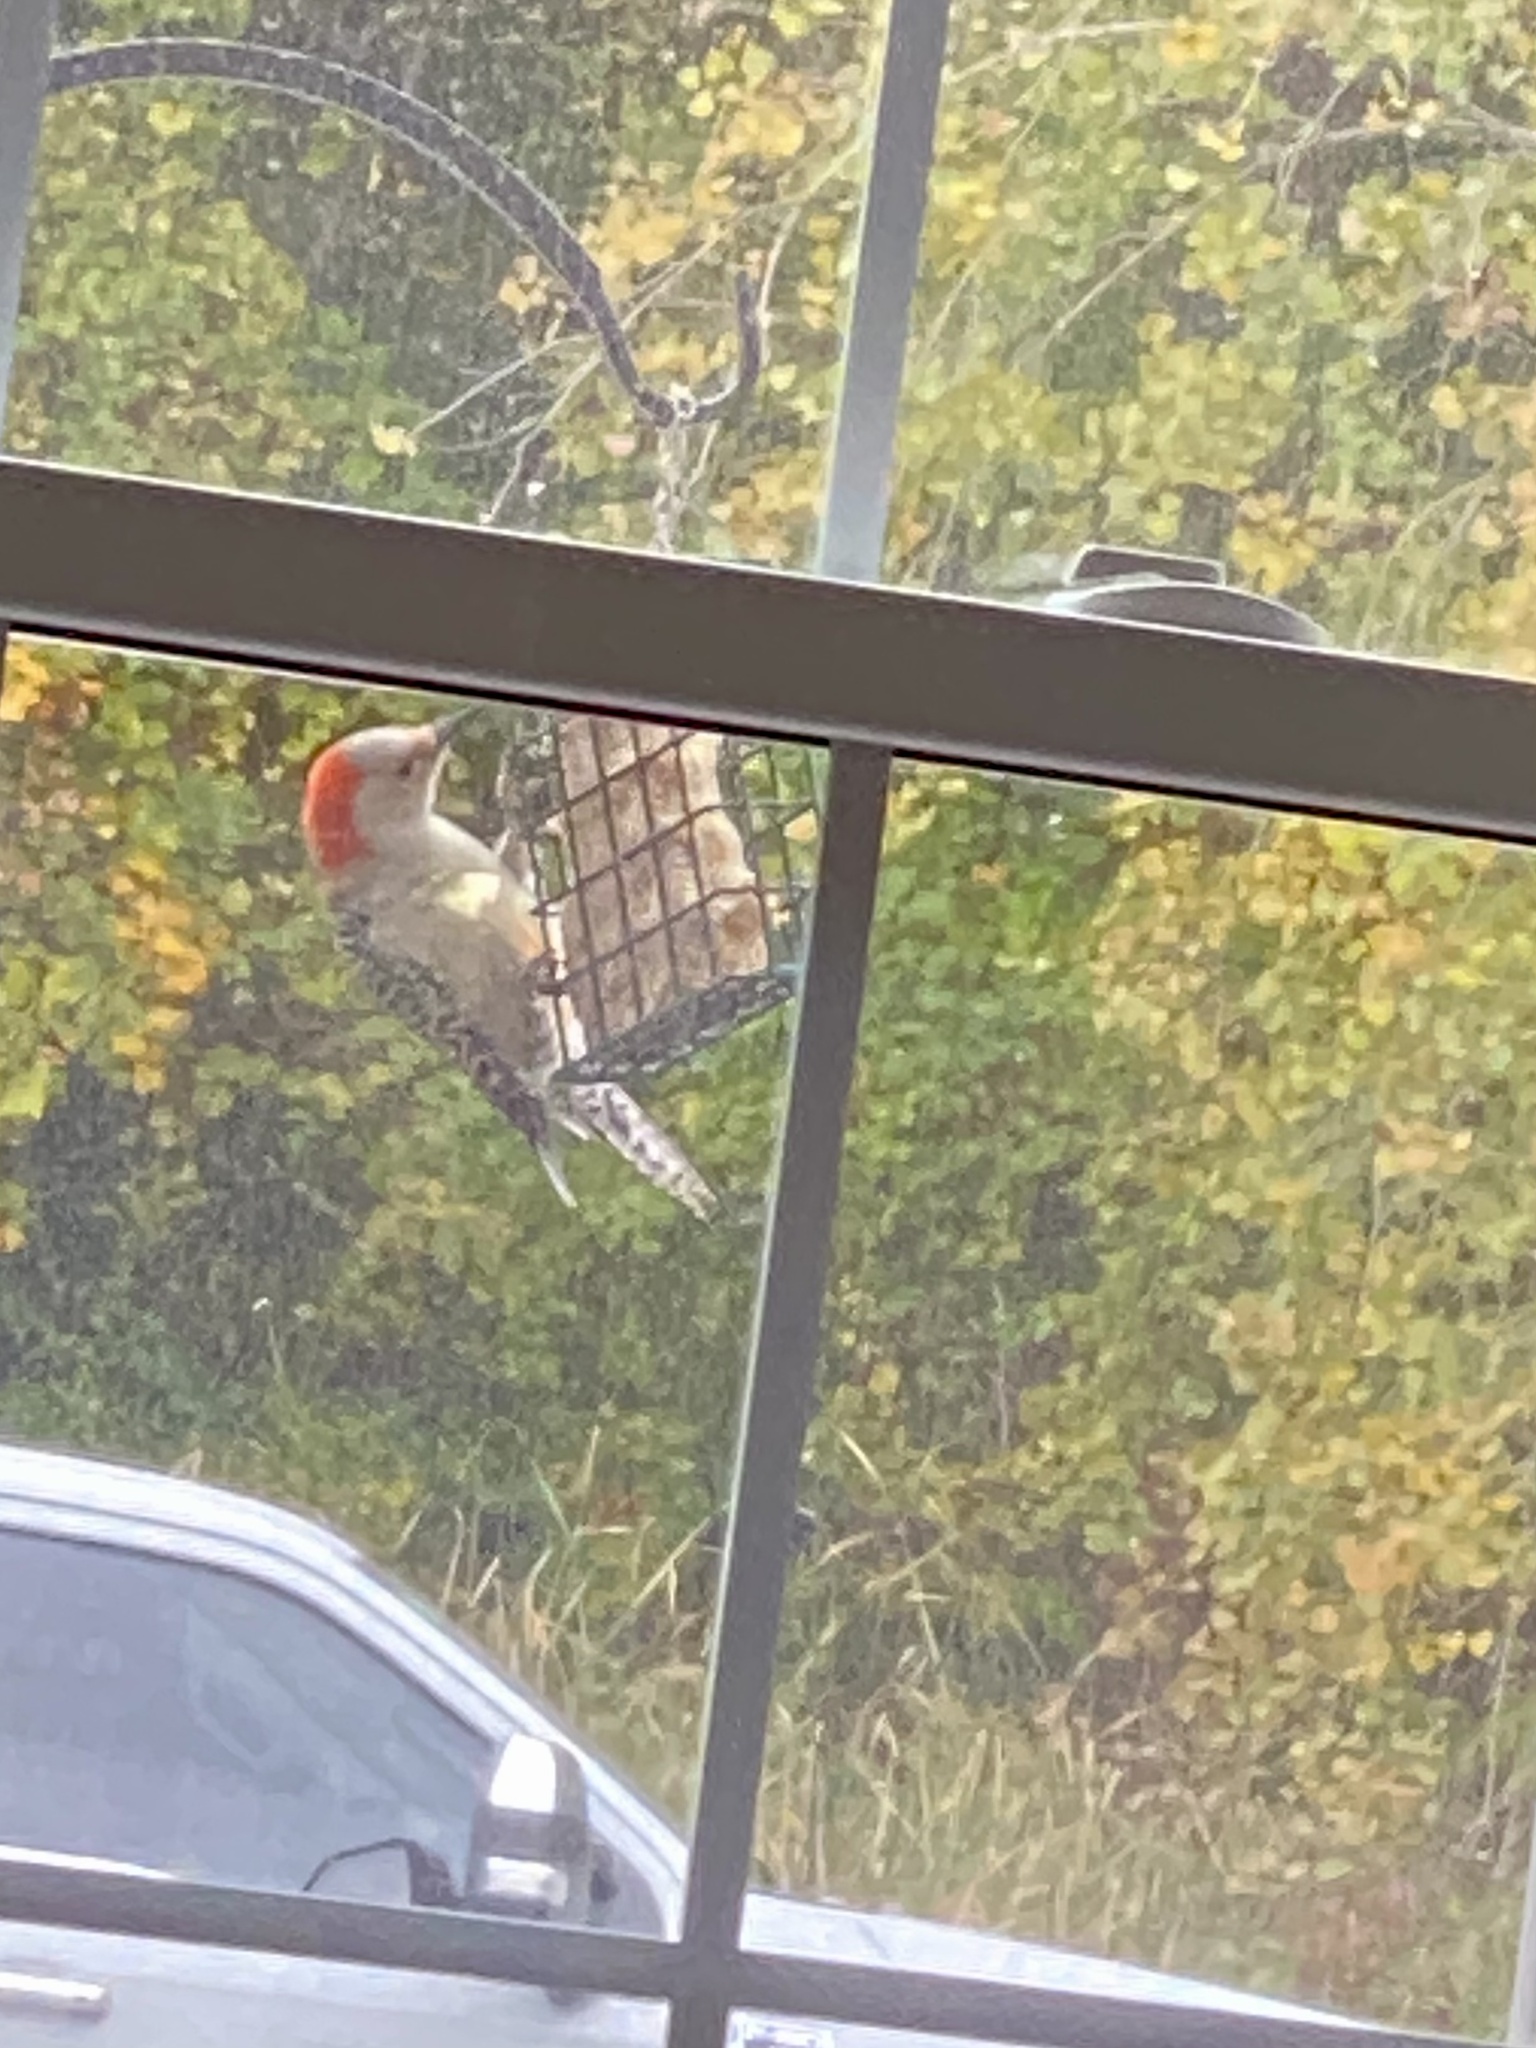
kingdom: Animalia
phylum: Chordata
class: Aves
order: Piciformes
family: Picidae
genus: Melanerpes
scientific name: Melanerpes carolinus
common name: Red-bellied woodpecker
